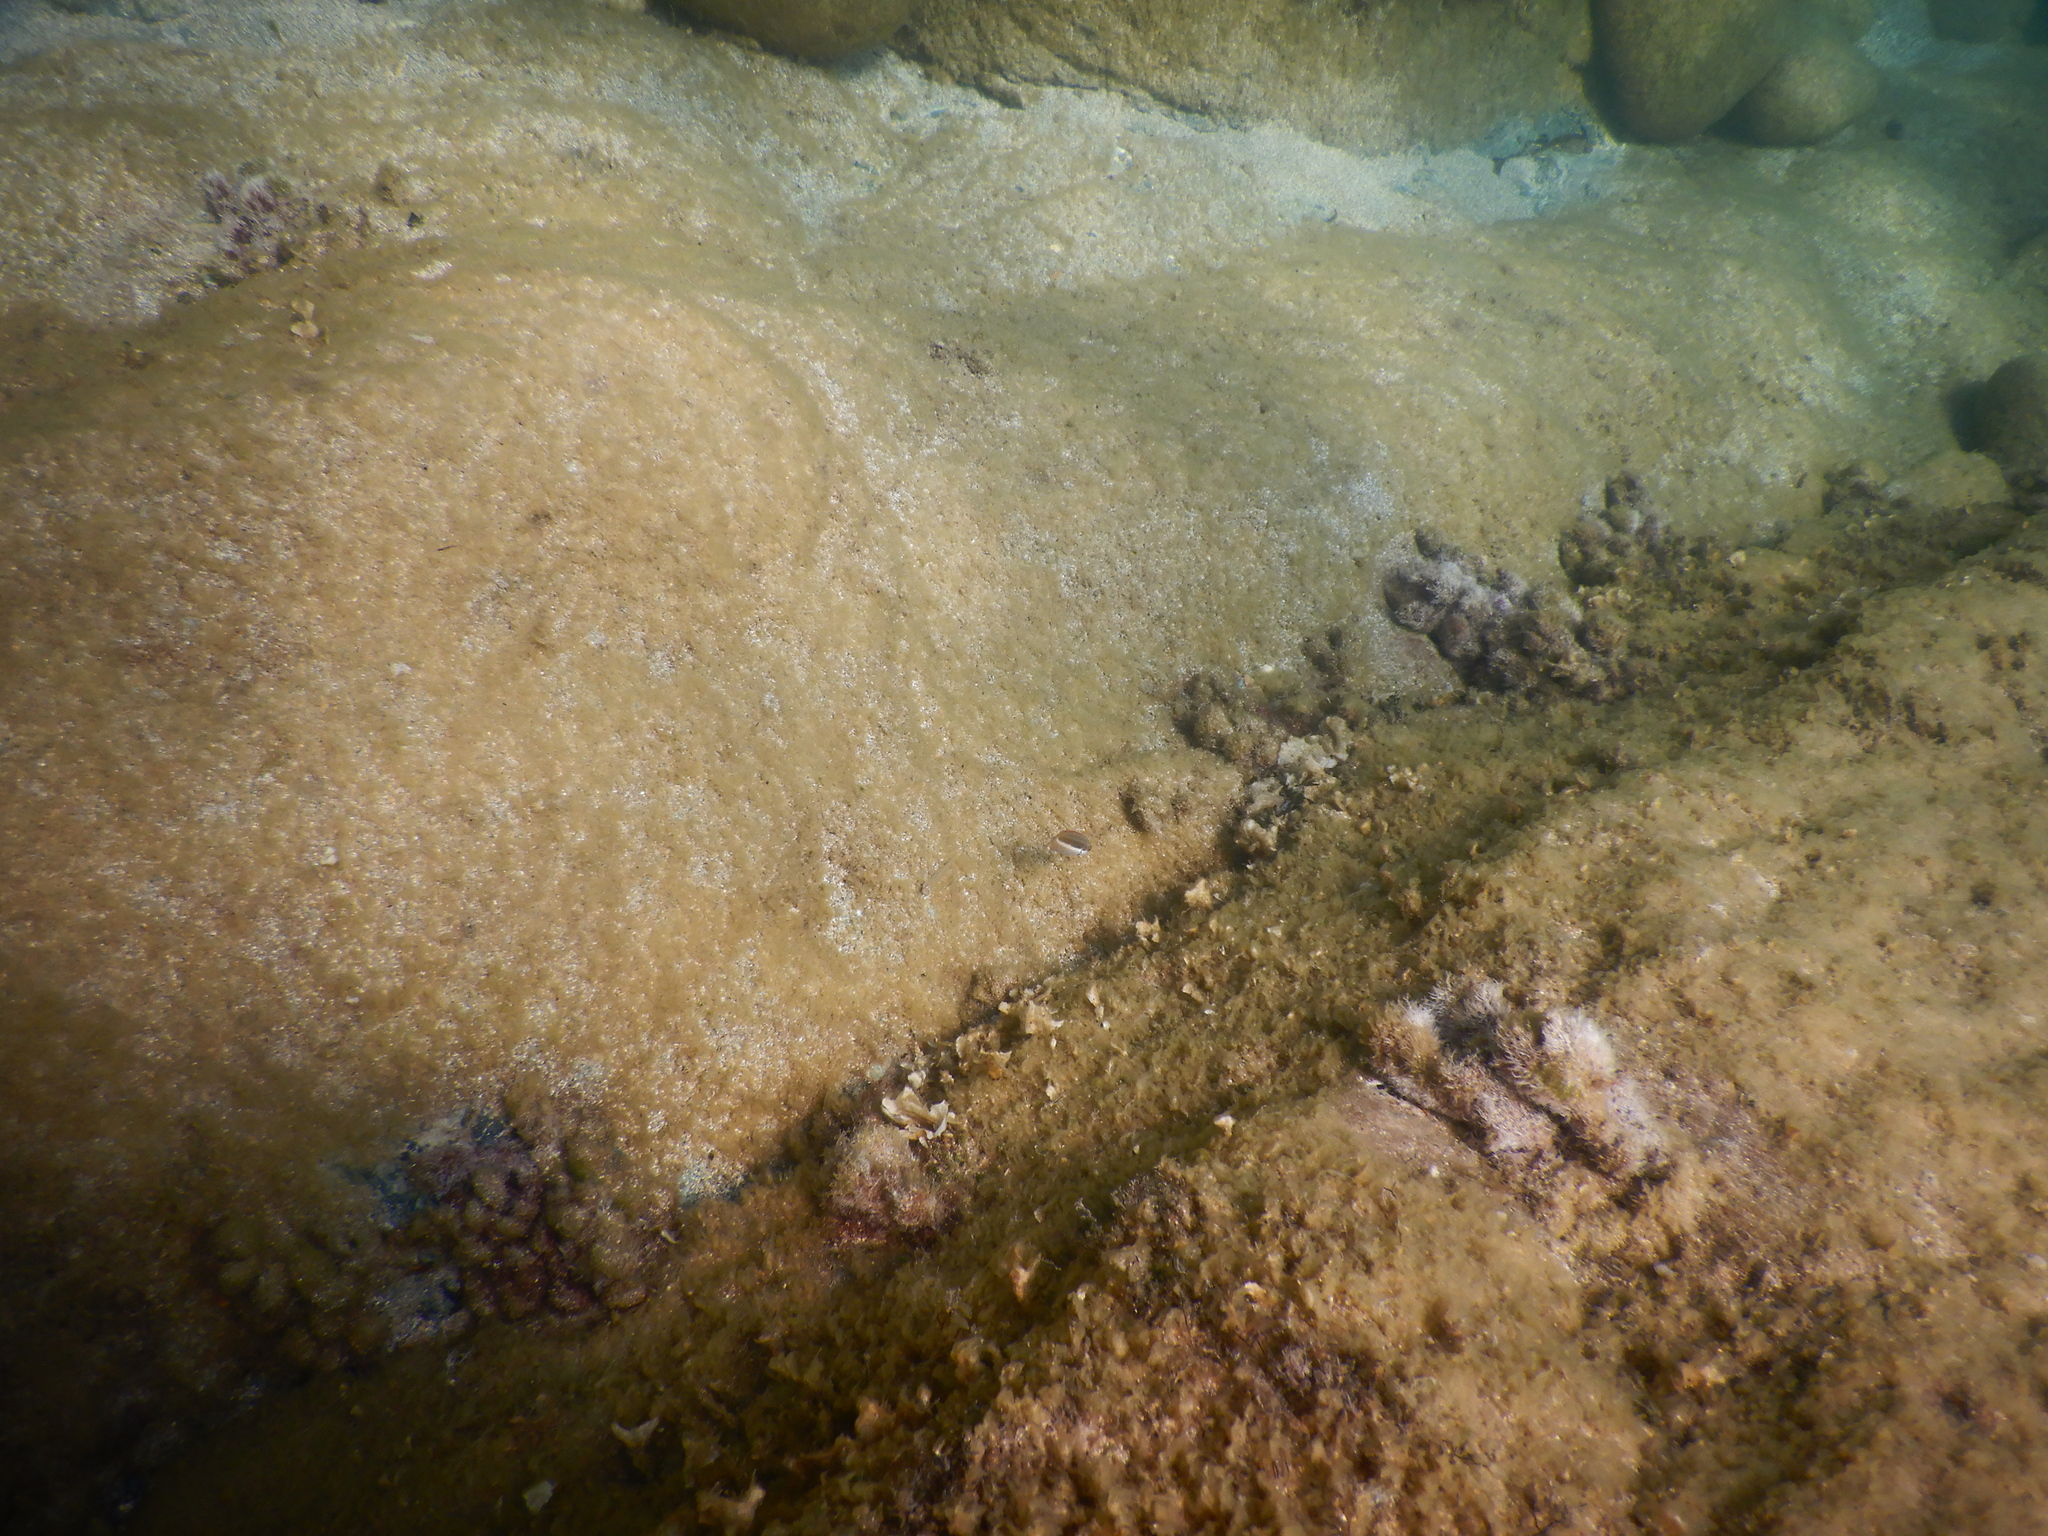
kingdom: Animalia
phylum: Chordata
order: Perciformes
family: Labridae
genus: Coris
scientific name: Coris julis
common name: Rainbow wrasse
